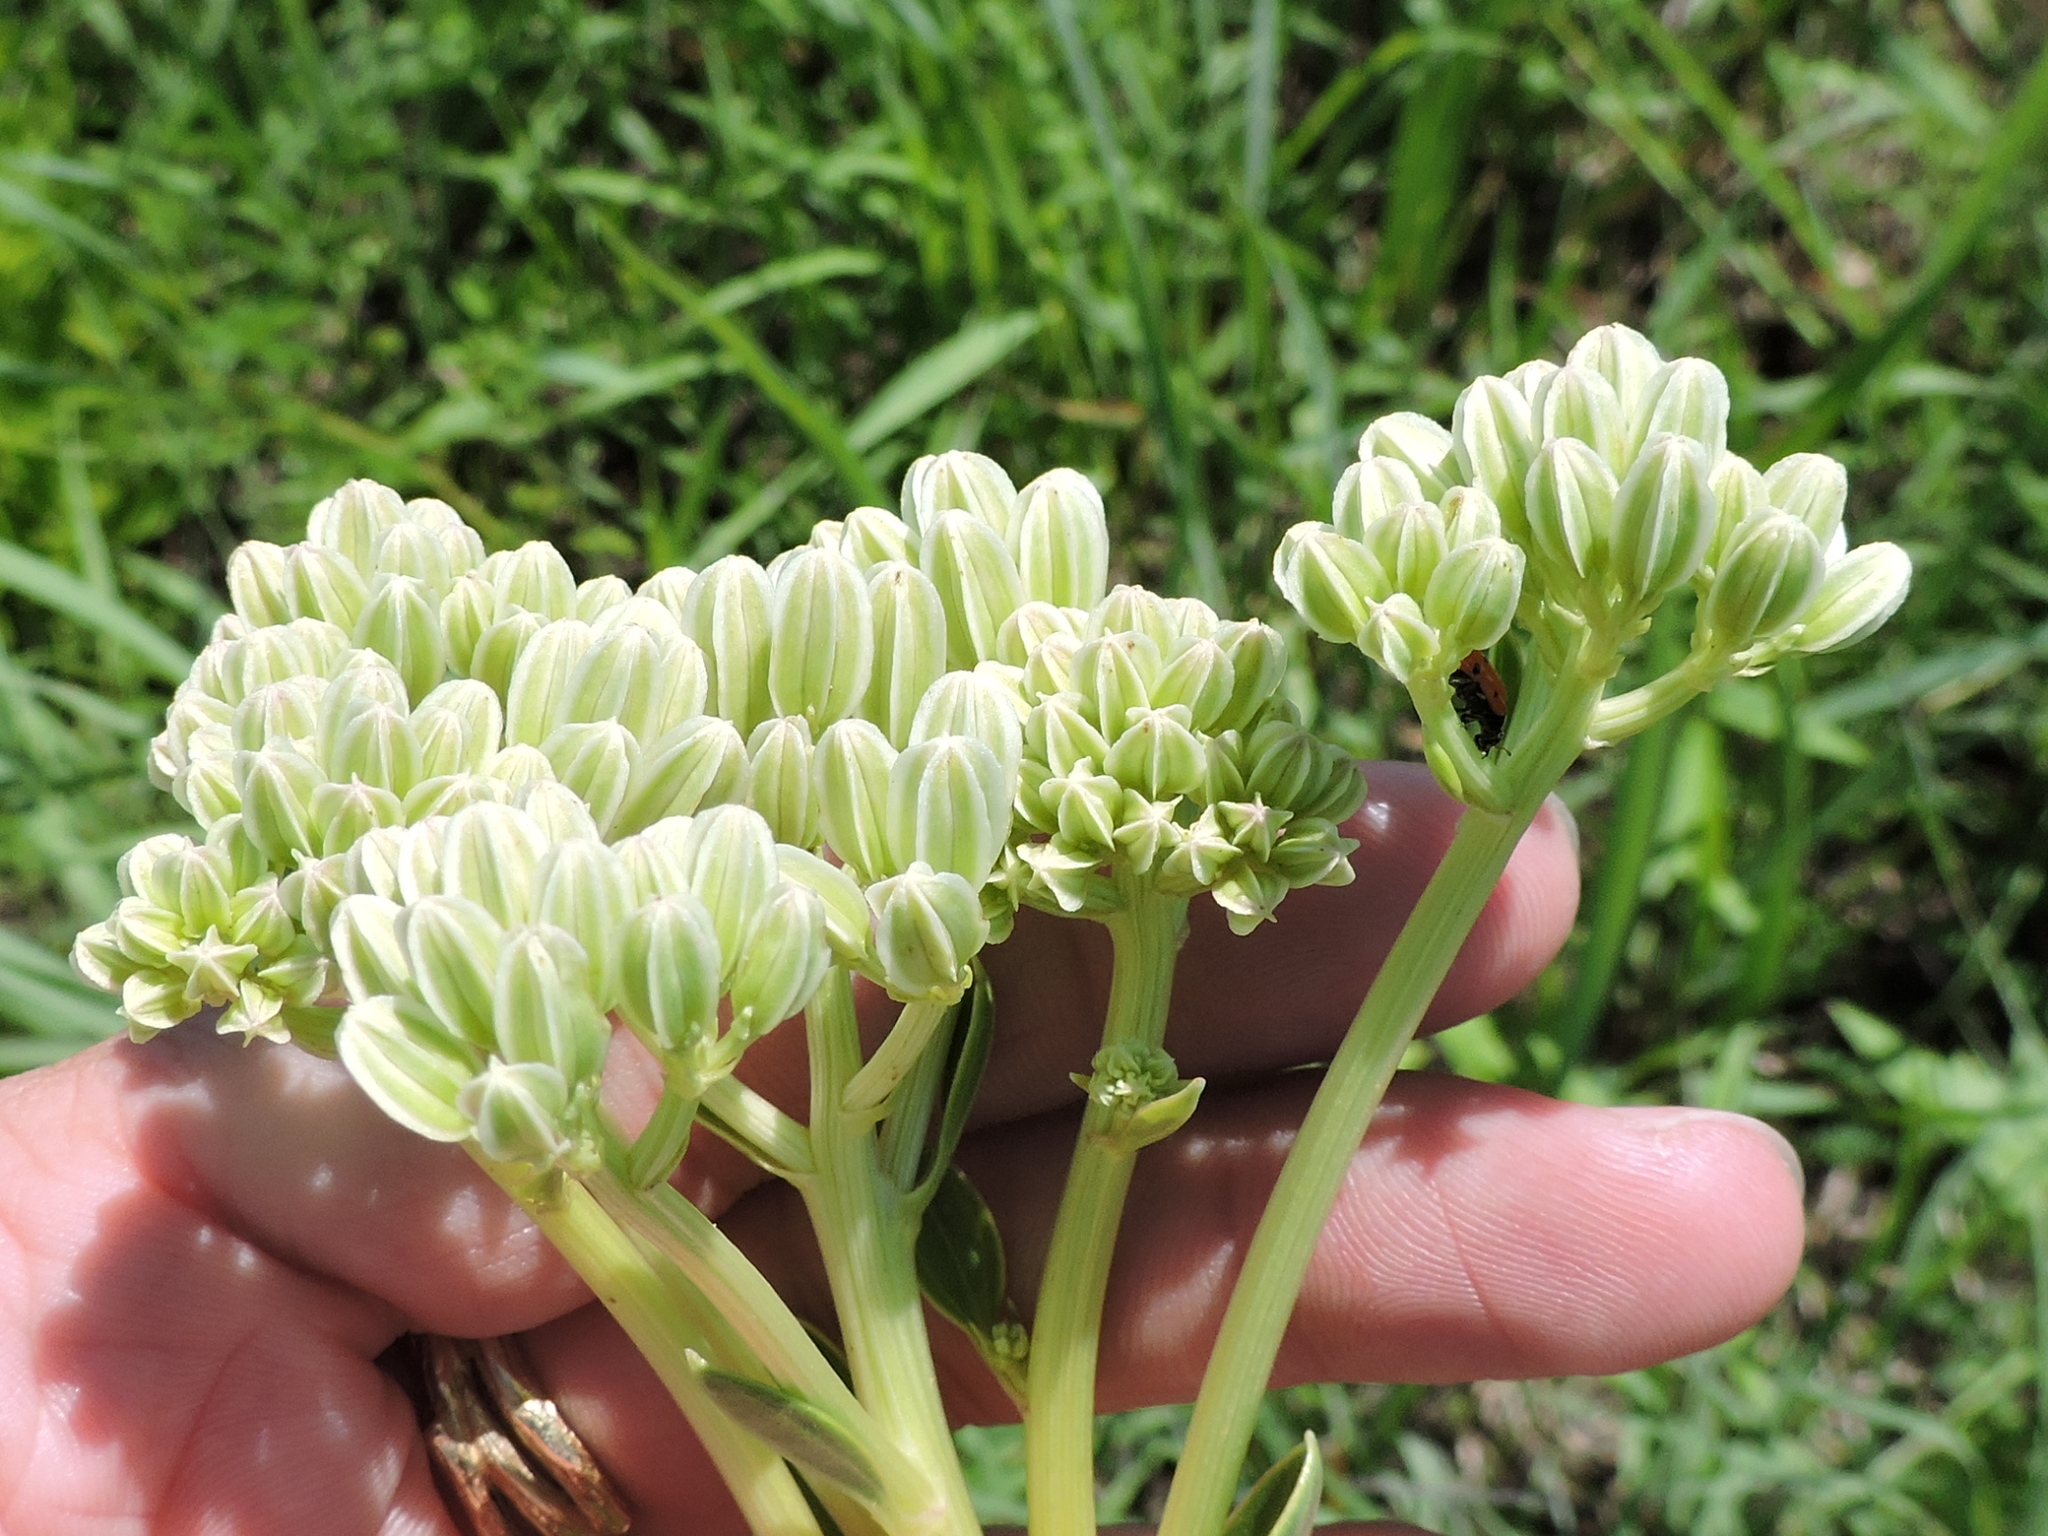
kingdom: Plantae
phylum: Tracheophyta
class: Magnoliopsida
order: Asterales
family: Asteraceae
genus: Arnoglossum
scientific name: Arnoglossum plantagineum
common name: Groove-stemmed indian-plantain
